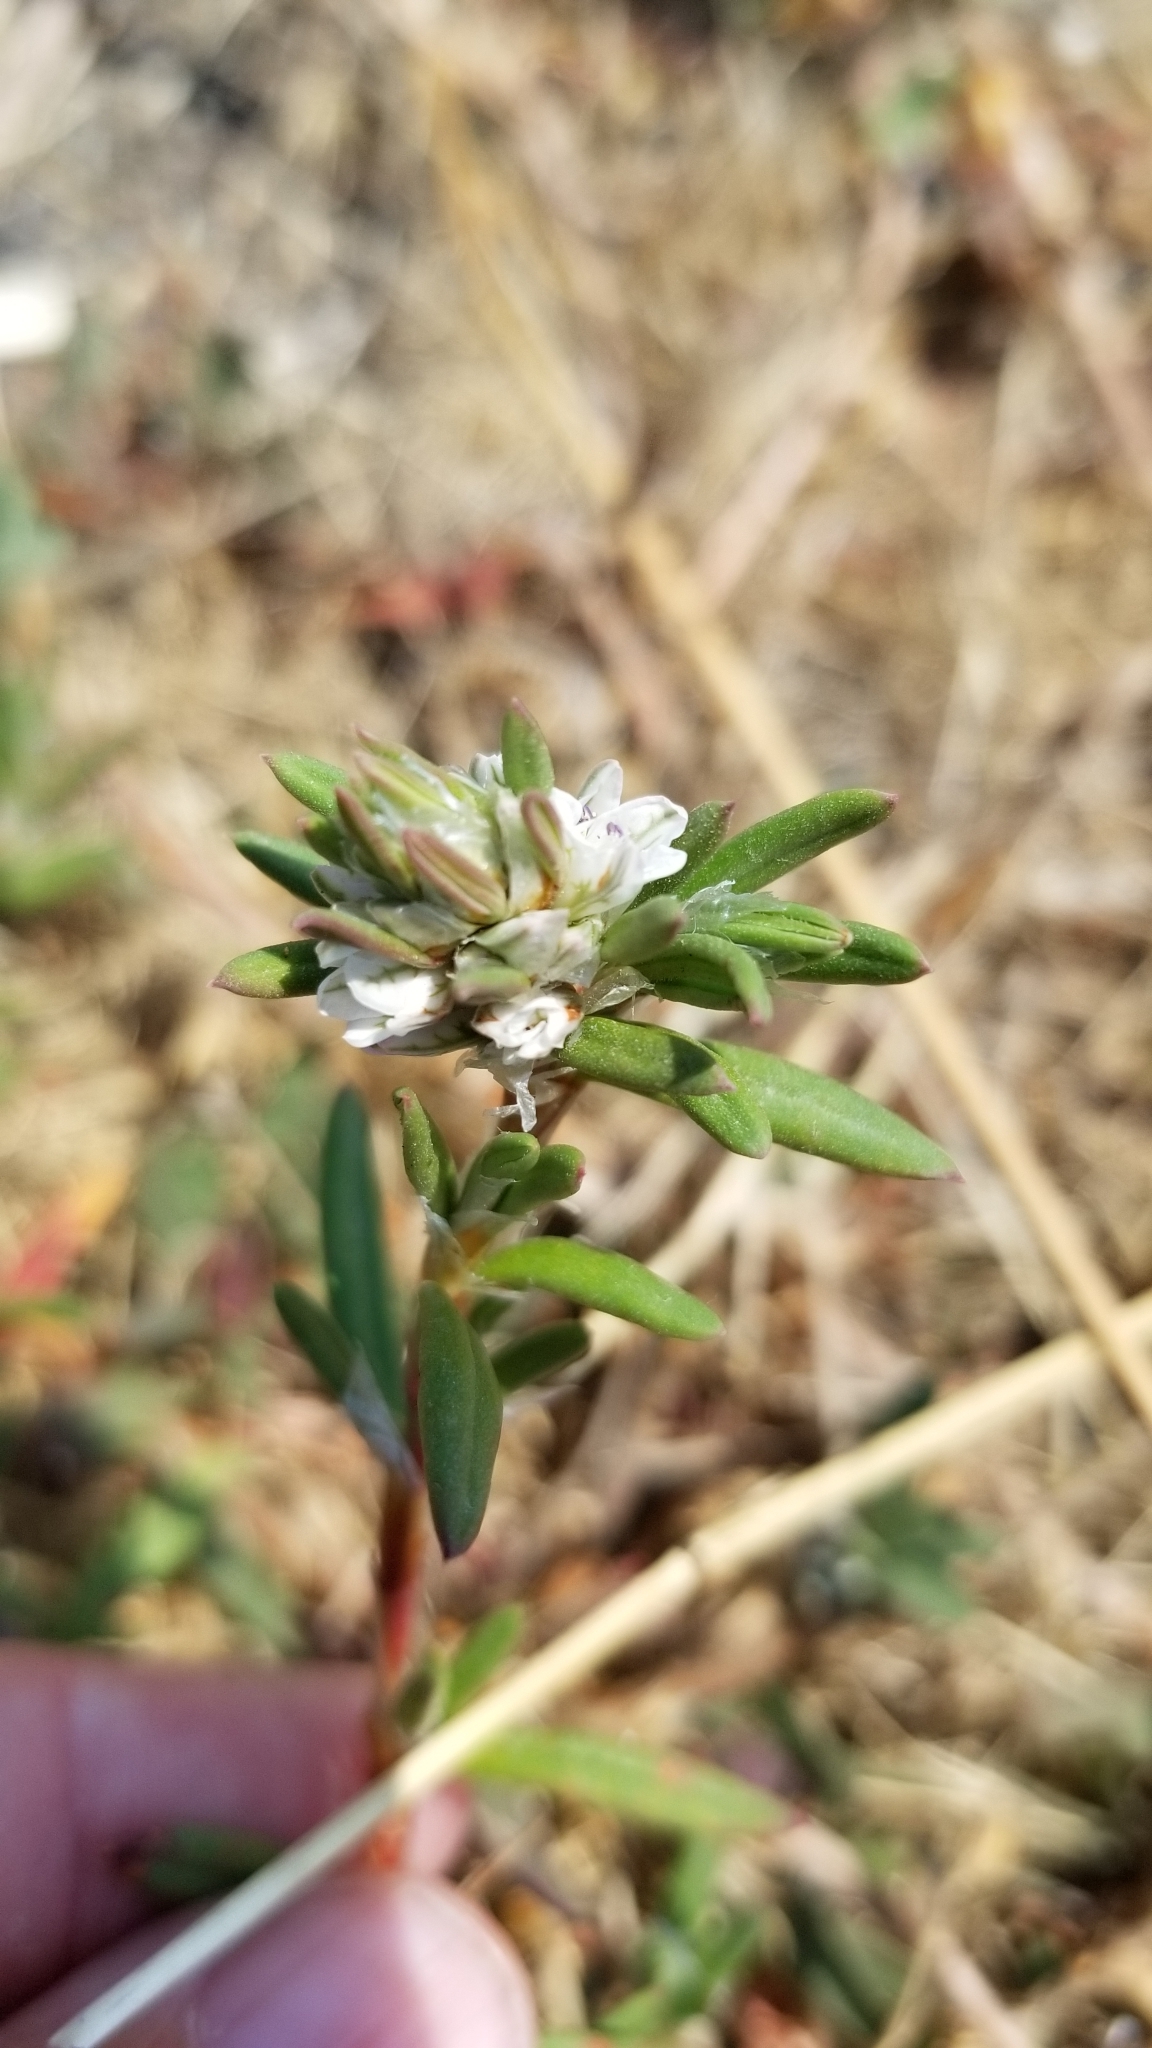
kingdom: Plantae
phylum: Tracheophyta
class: Magnoliopsida
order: Caryophyllales
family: Polygonaceae
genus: Polygonum
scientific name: Polygonum paronychia
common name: Dune knotweed
